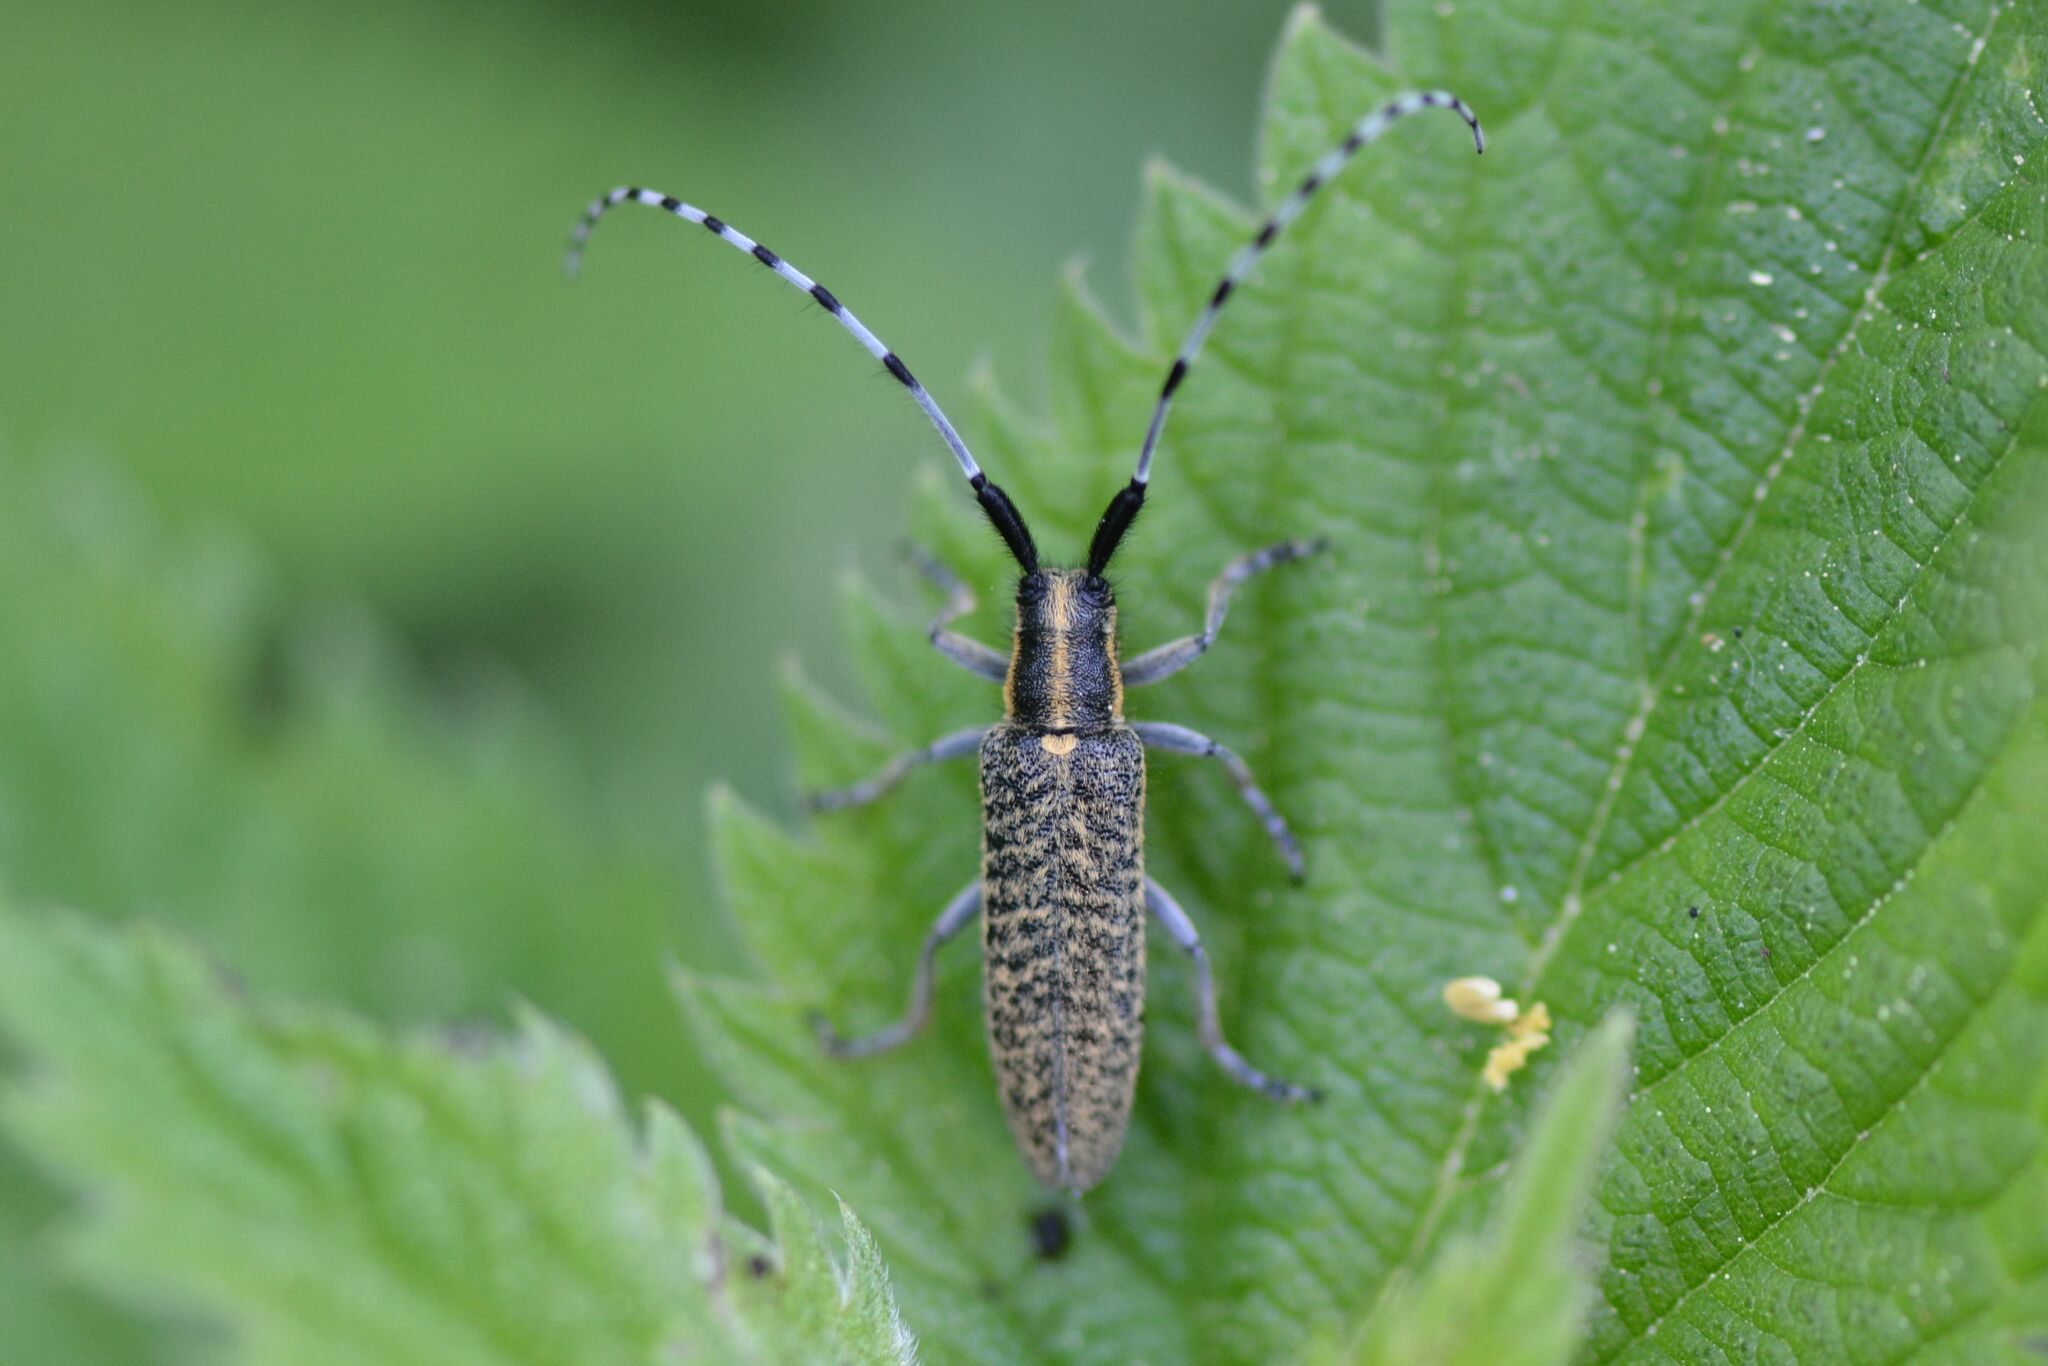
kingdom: Animalia
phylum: Arthropoda
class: Insecta
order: Coleoptera
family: Cerambycidae
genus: Agapanthia
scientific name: Agapanthia villosoviridescens
